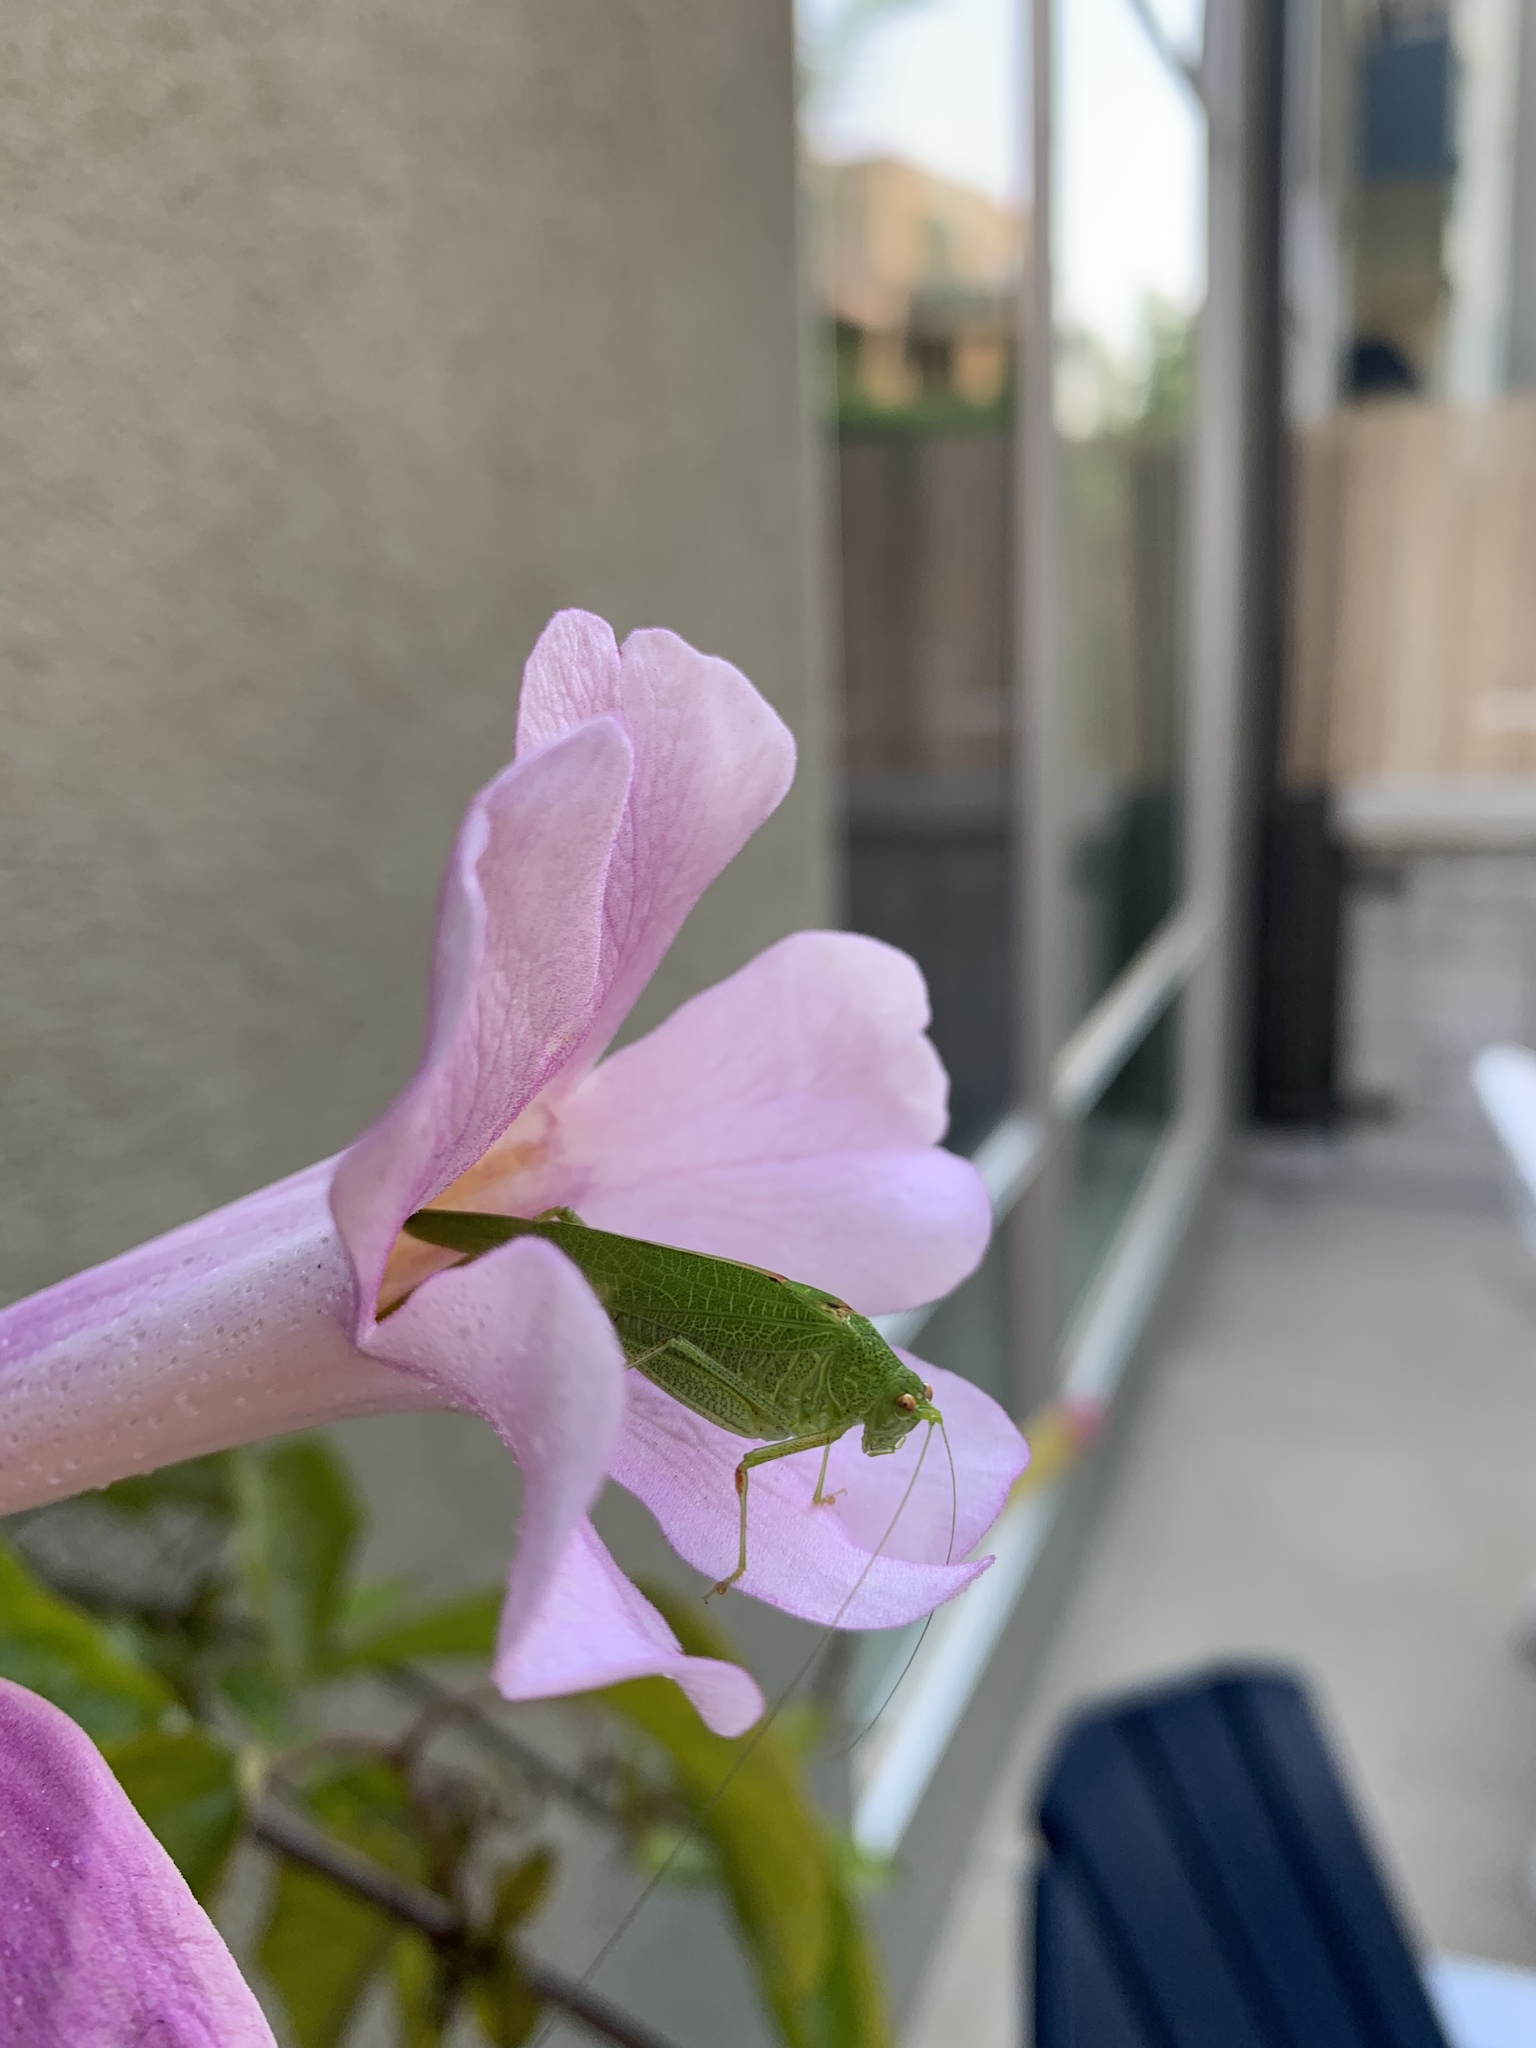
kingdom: Animalia
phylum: Arthropoda
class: Insecta
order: Orthoptera
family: Tettigoniidae
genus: Phaneroptera
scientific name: Phaneroptera nana
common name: Southern sickle bush-cricket
